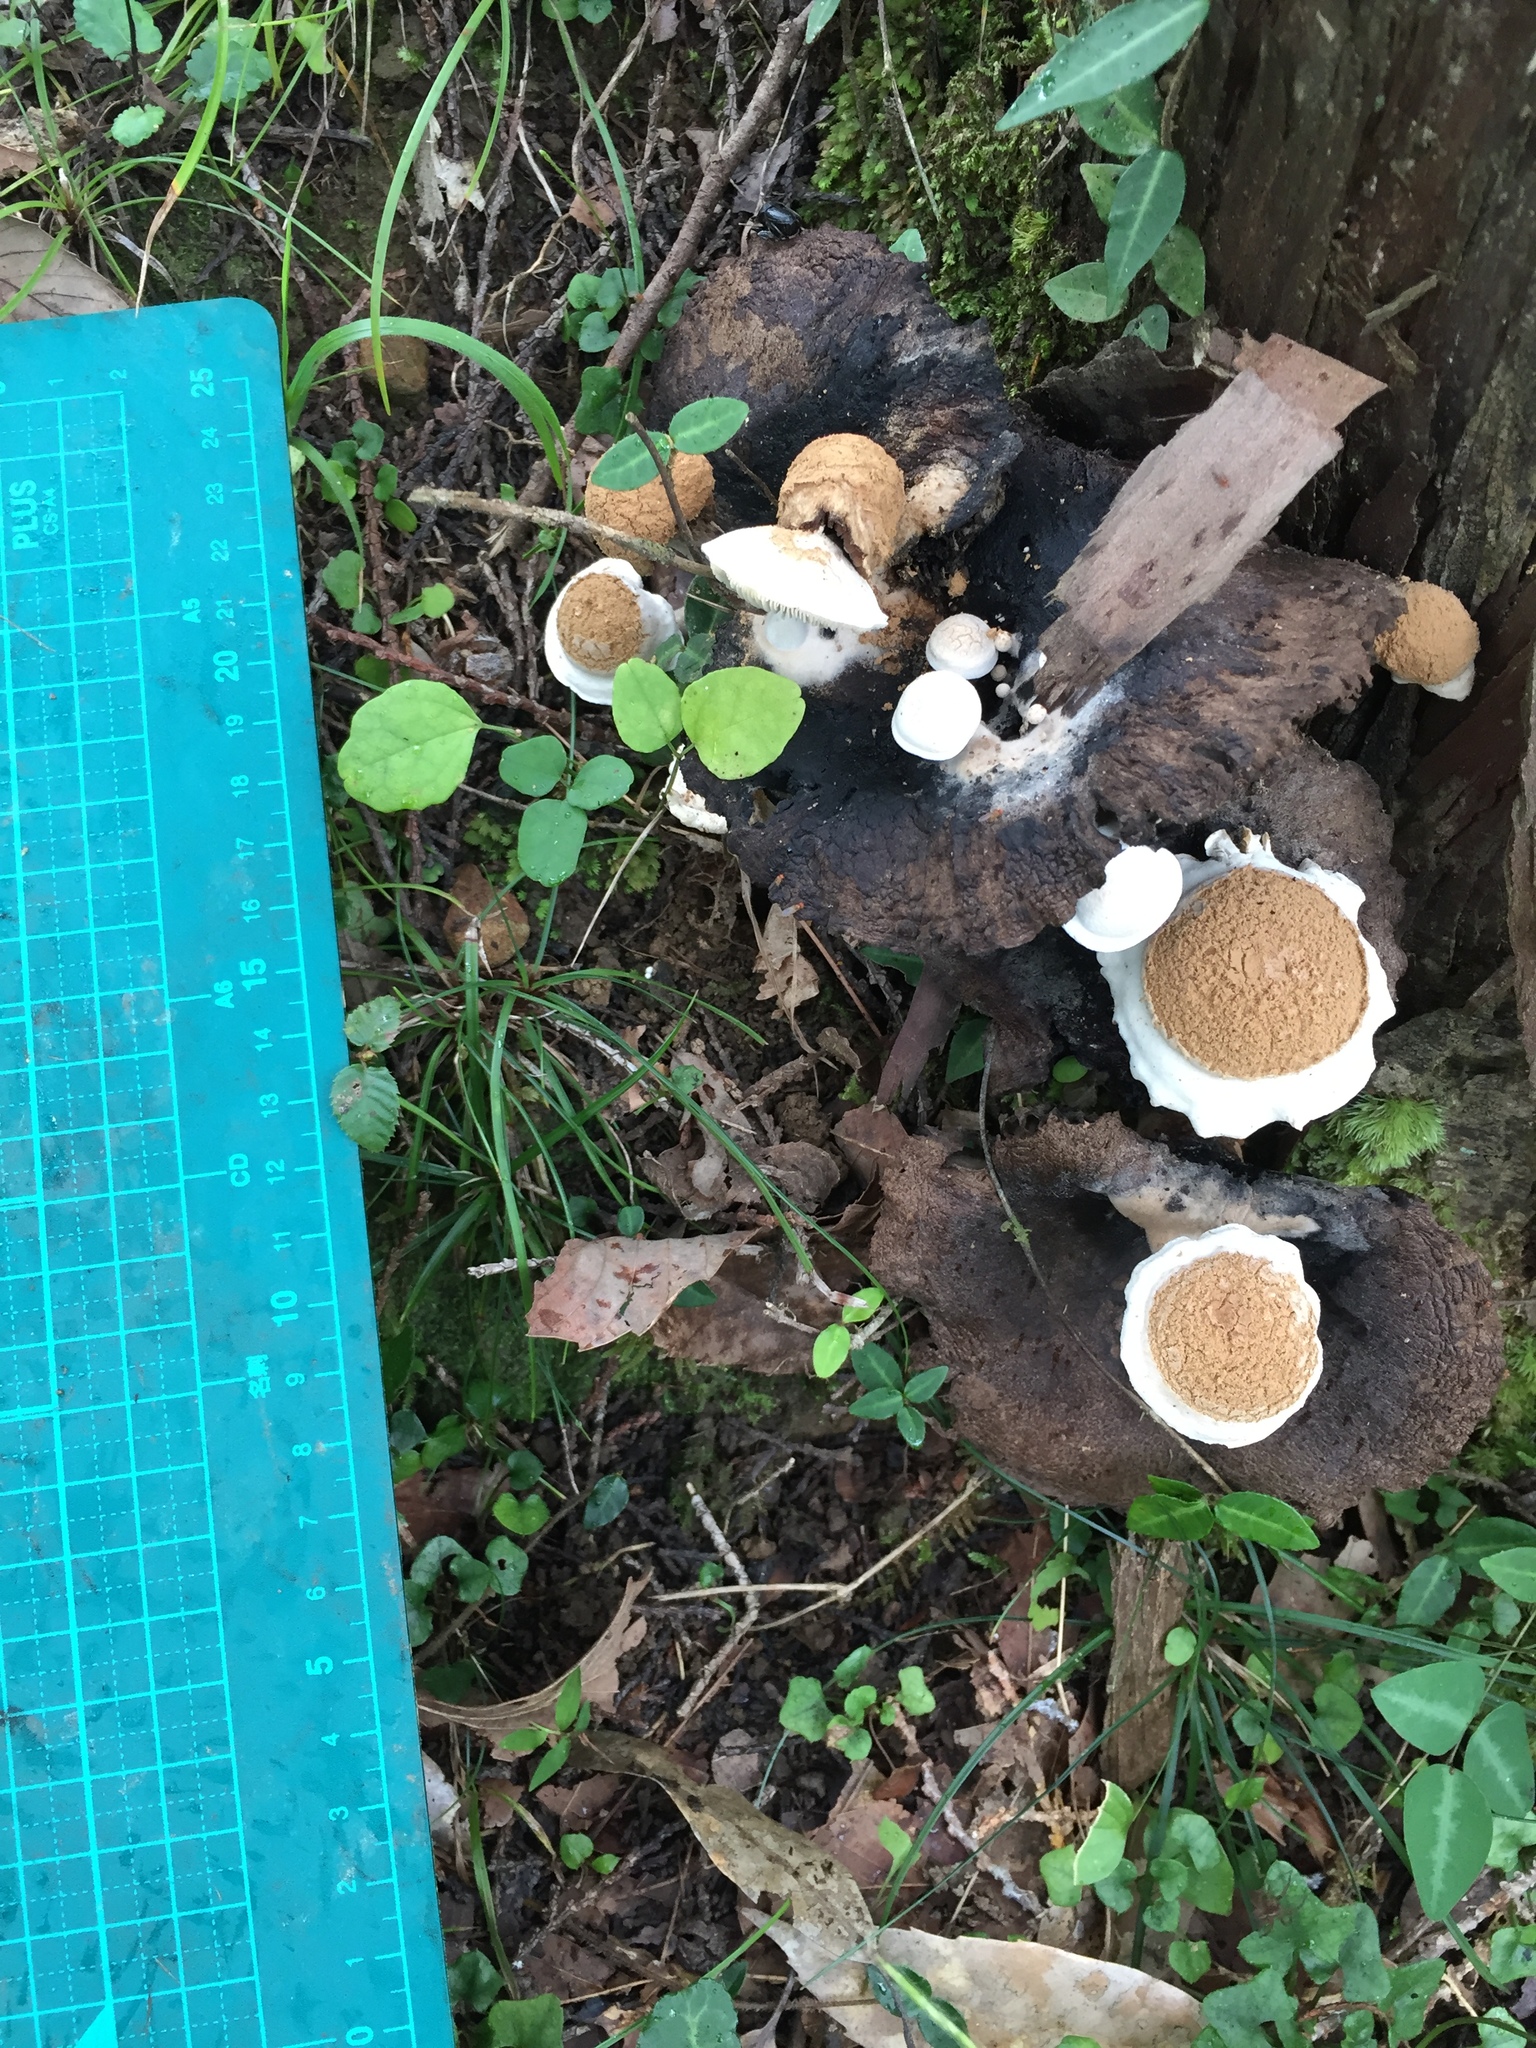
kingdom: Fungi
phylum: Basidiomycota
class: Agaricomycetes
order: Agaricales
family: Lyophyllaceae
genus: Asterophora
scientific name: Asterophora lycoperdoides
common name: Pick-a-back toadstool
